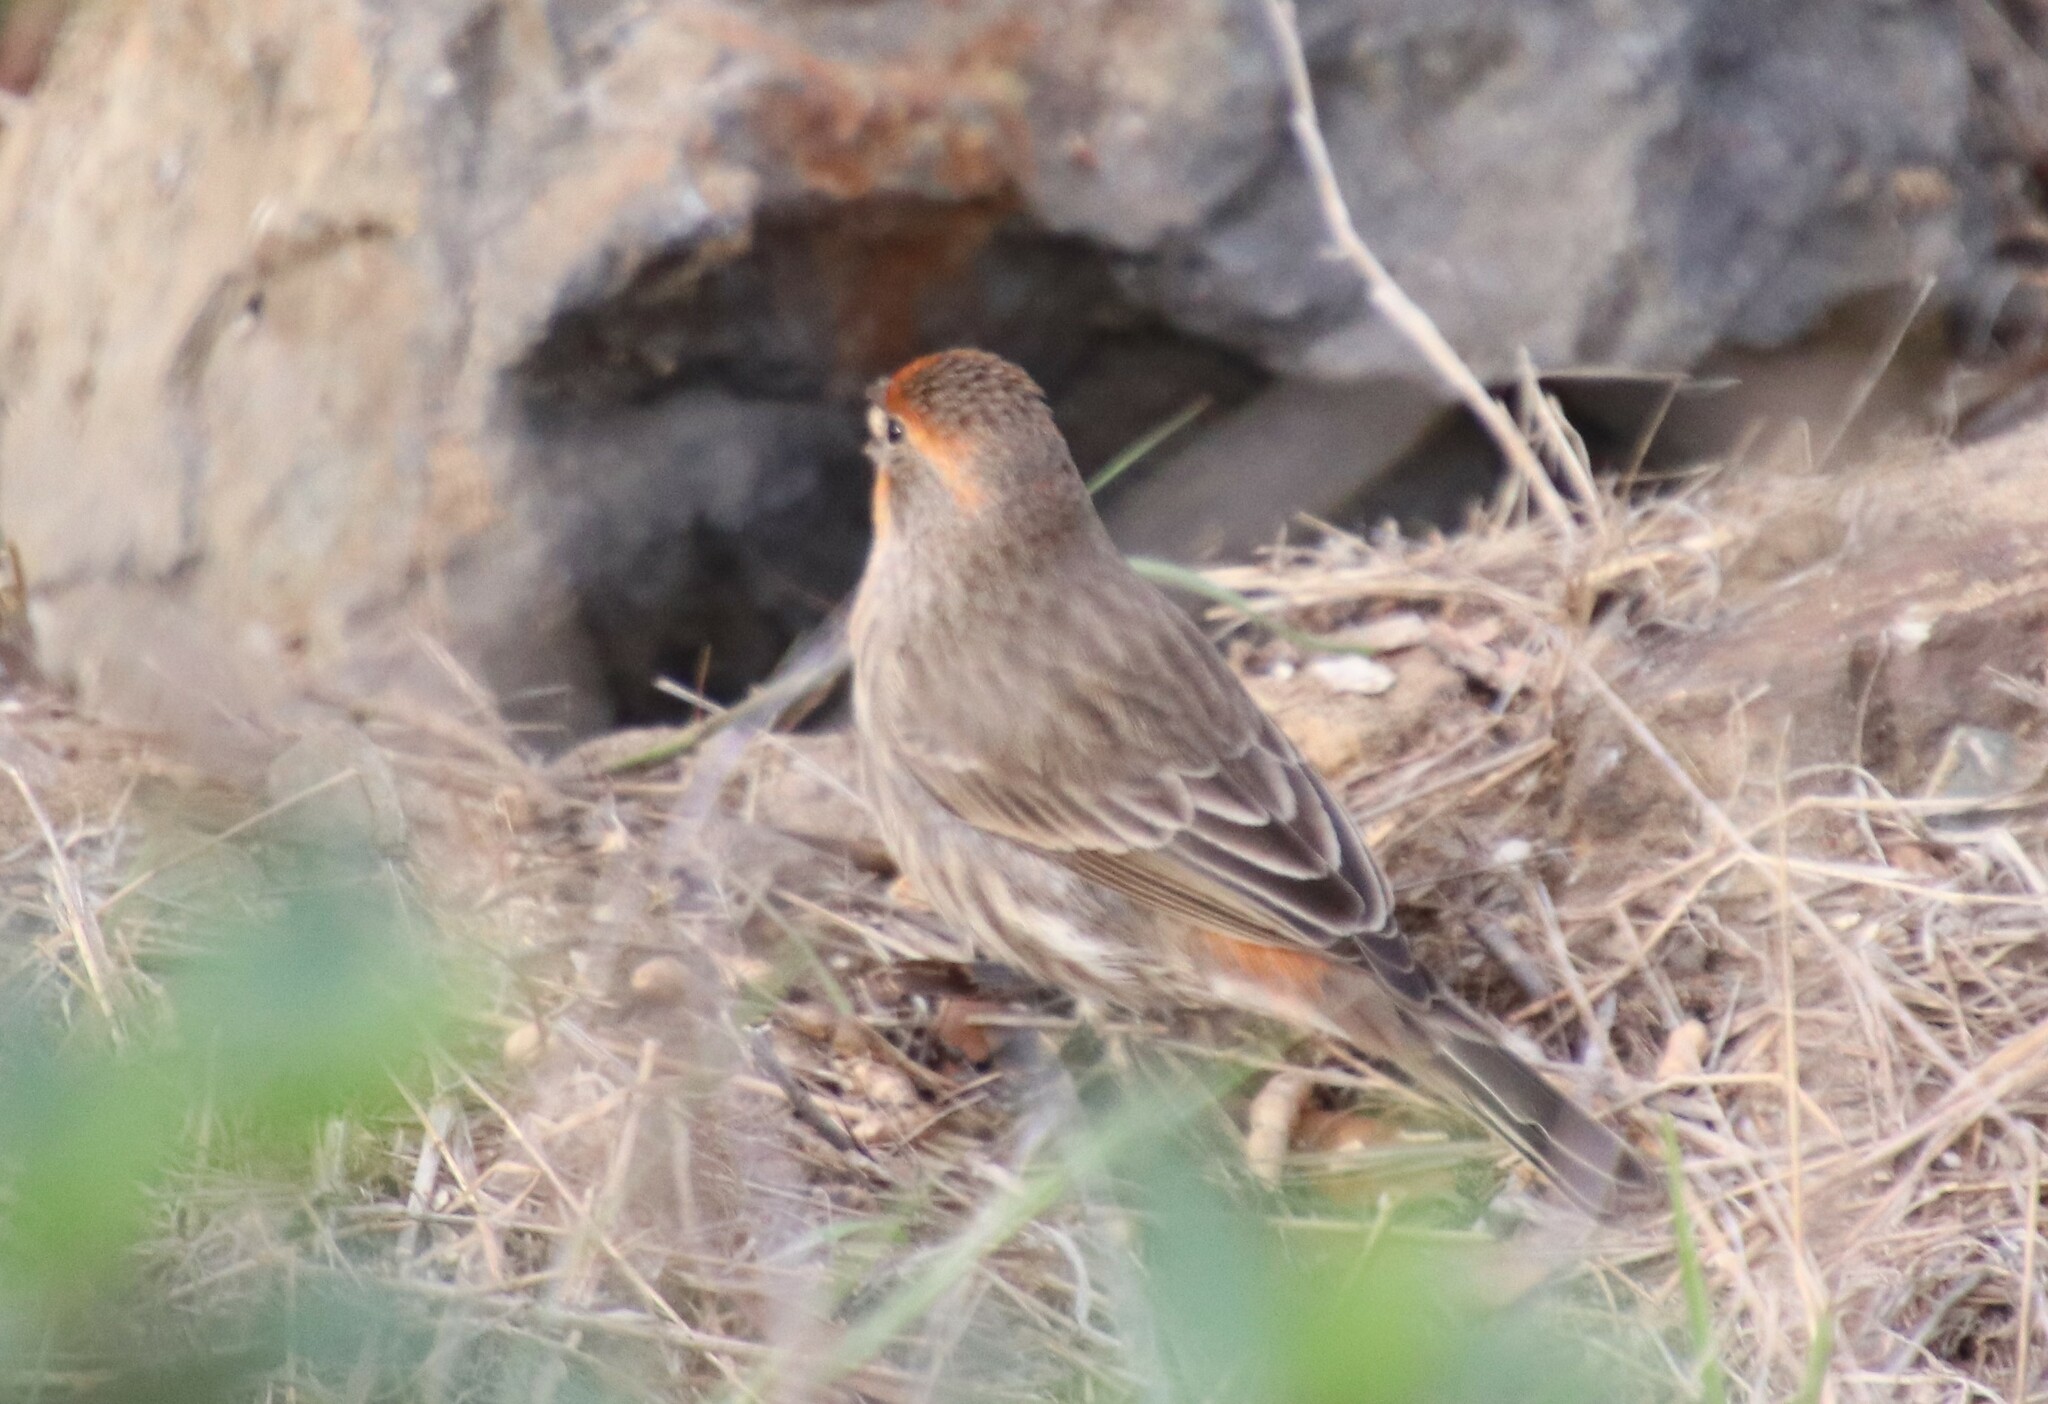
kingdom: Animalia
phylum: Chordata
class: Aves
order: Passeriformes
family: Fringillidae
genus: Haemorhous
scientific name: Haemorhous mexicanus
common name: House finch
